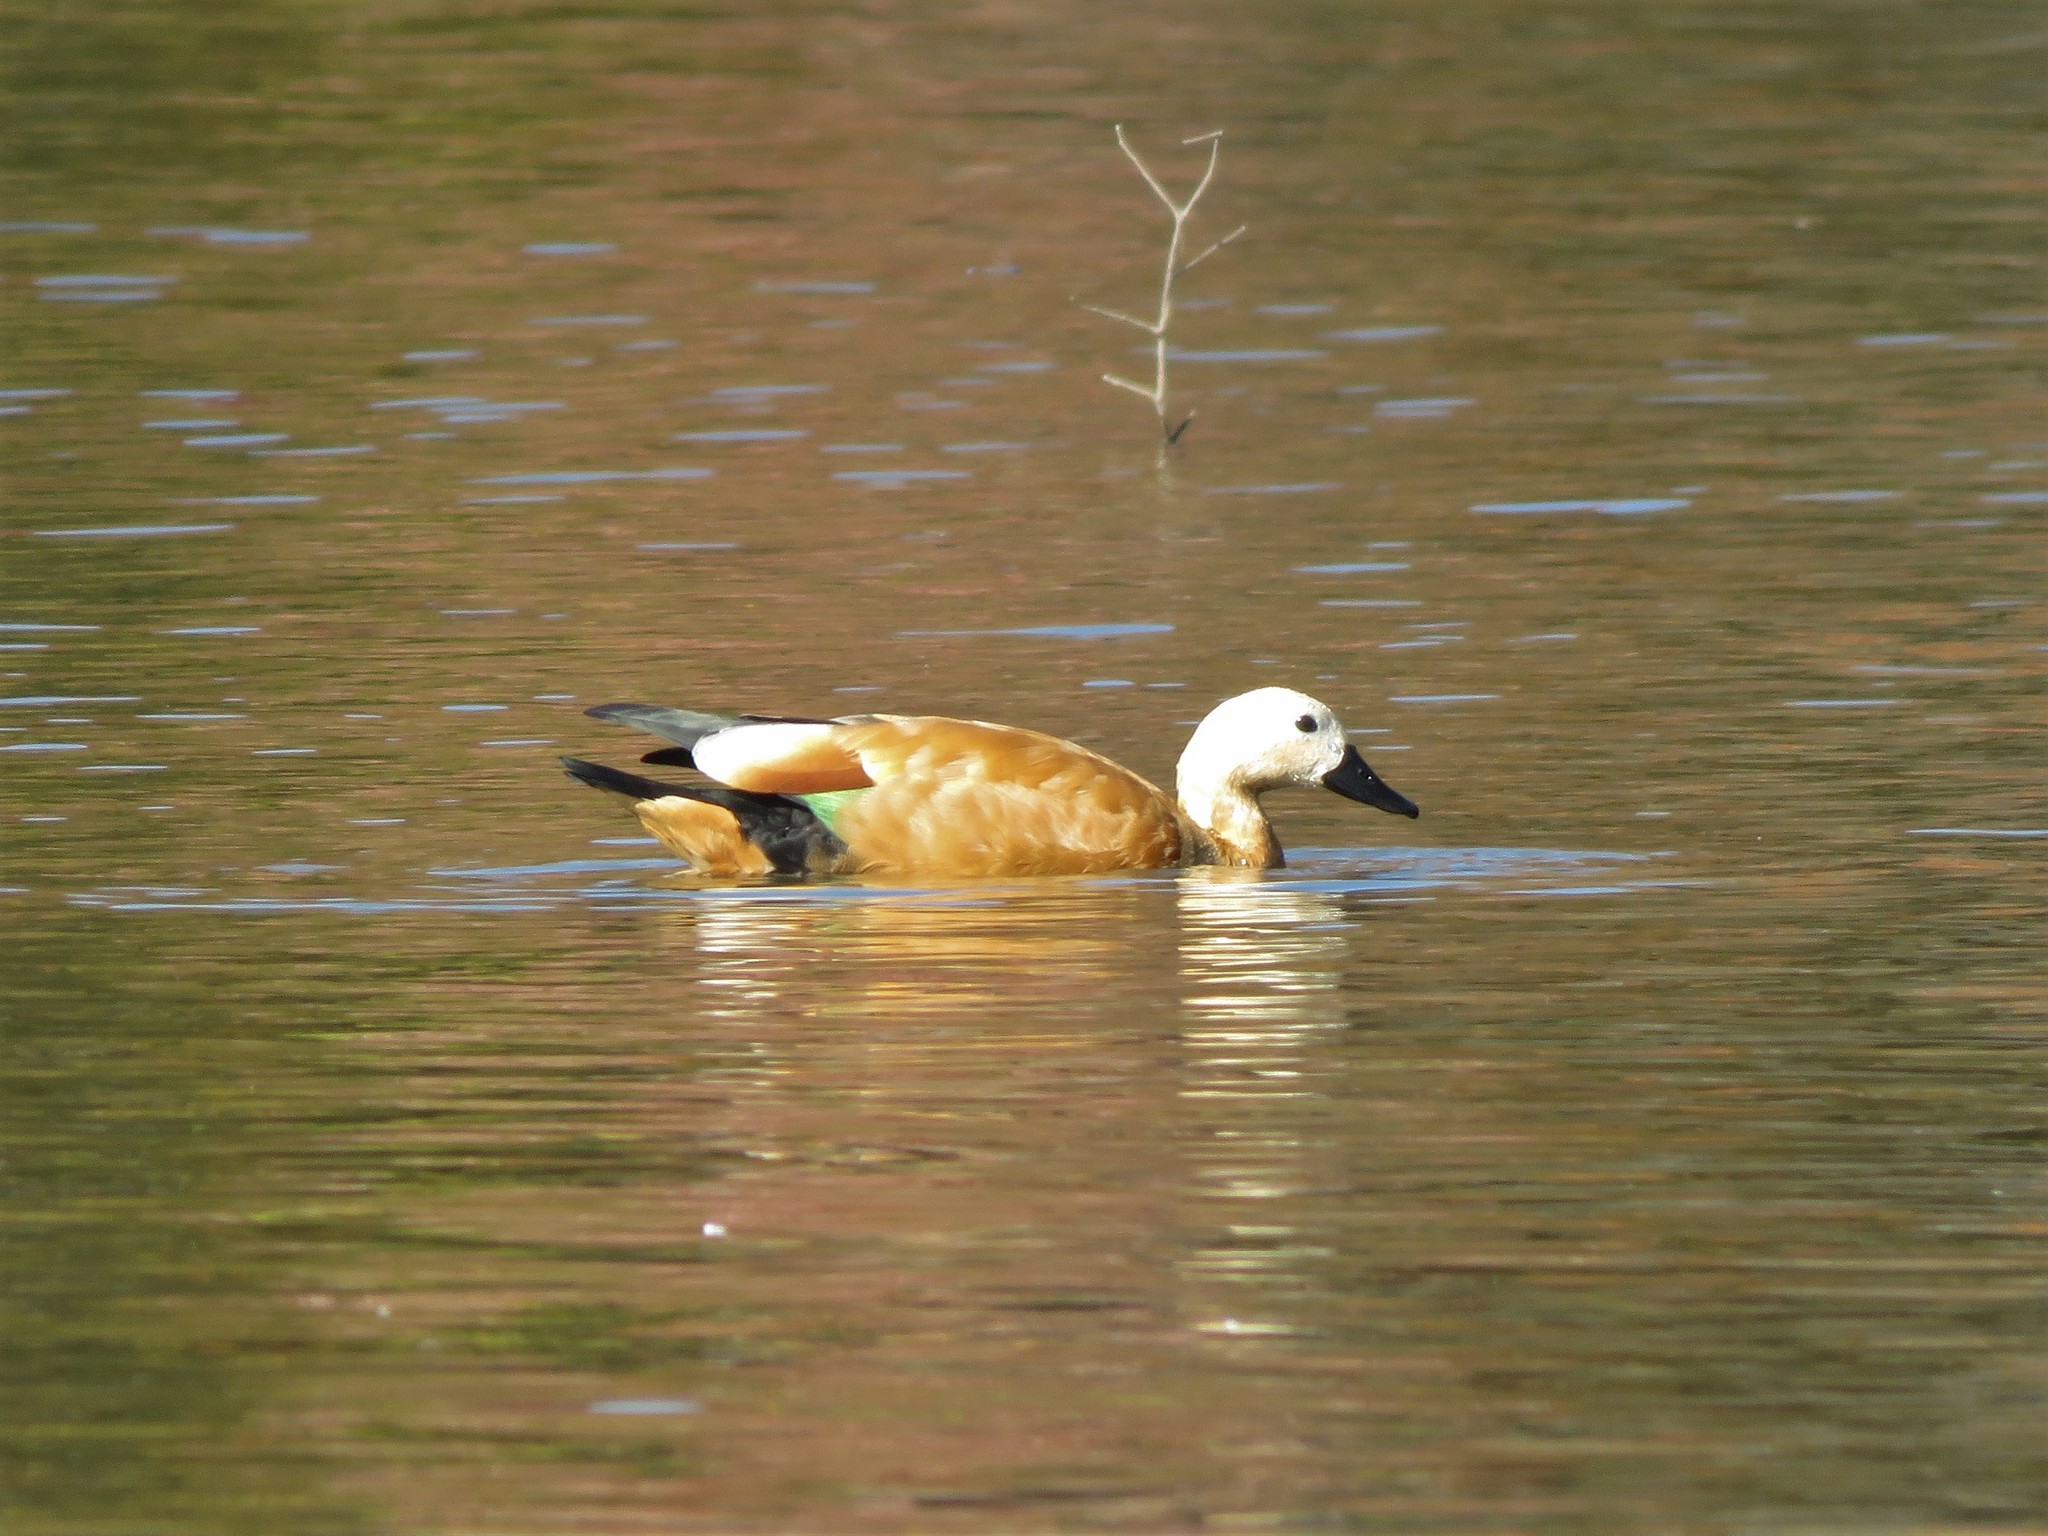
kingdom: Animalia
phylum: Chordata
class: Aves
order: Anseriformes
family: Anatidae
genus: Tadorna
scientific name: Tadorna ferruginea
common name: Ruddy shelduck
